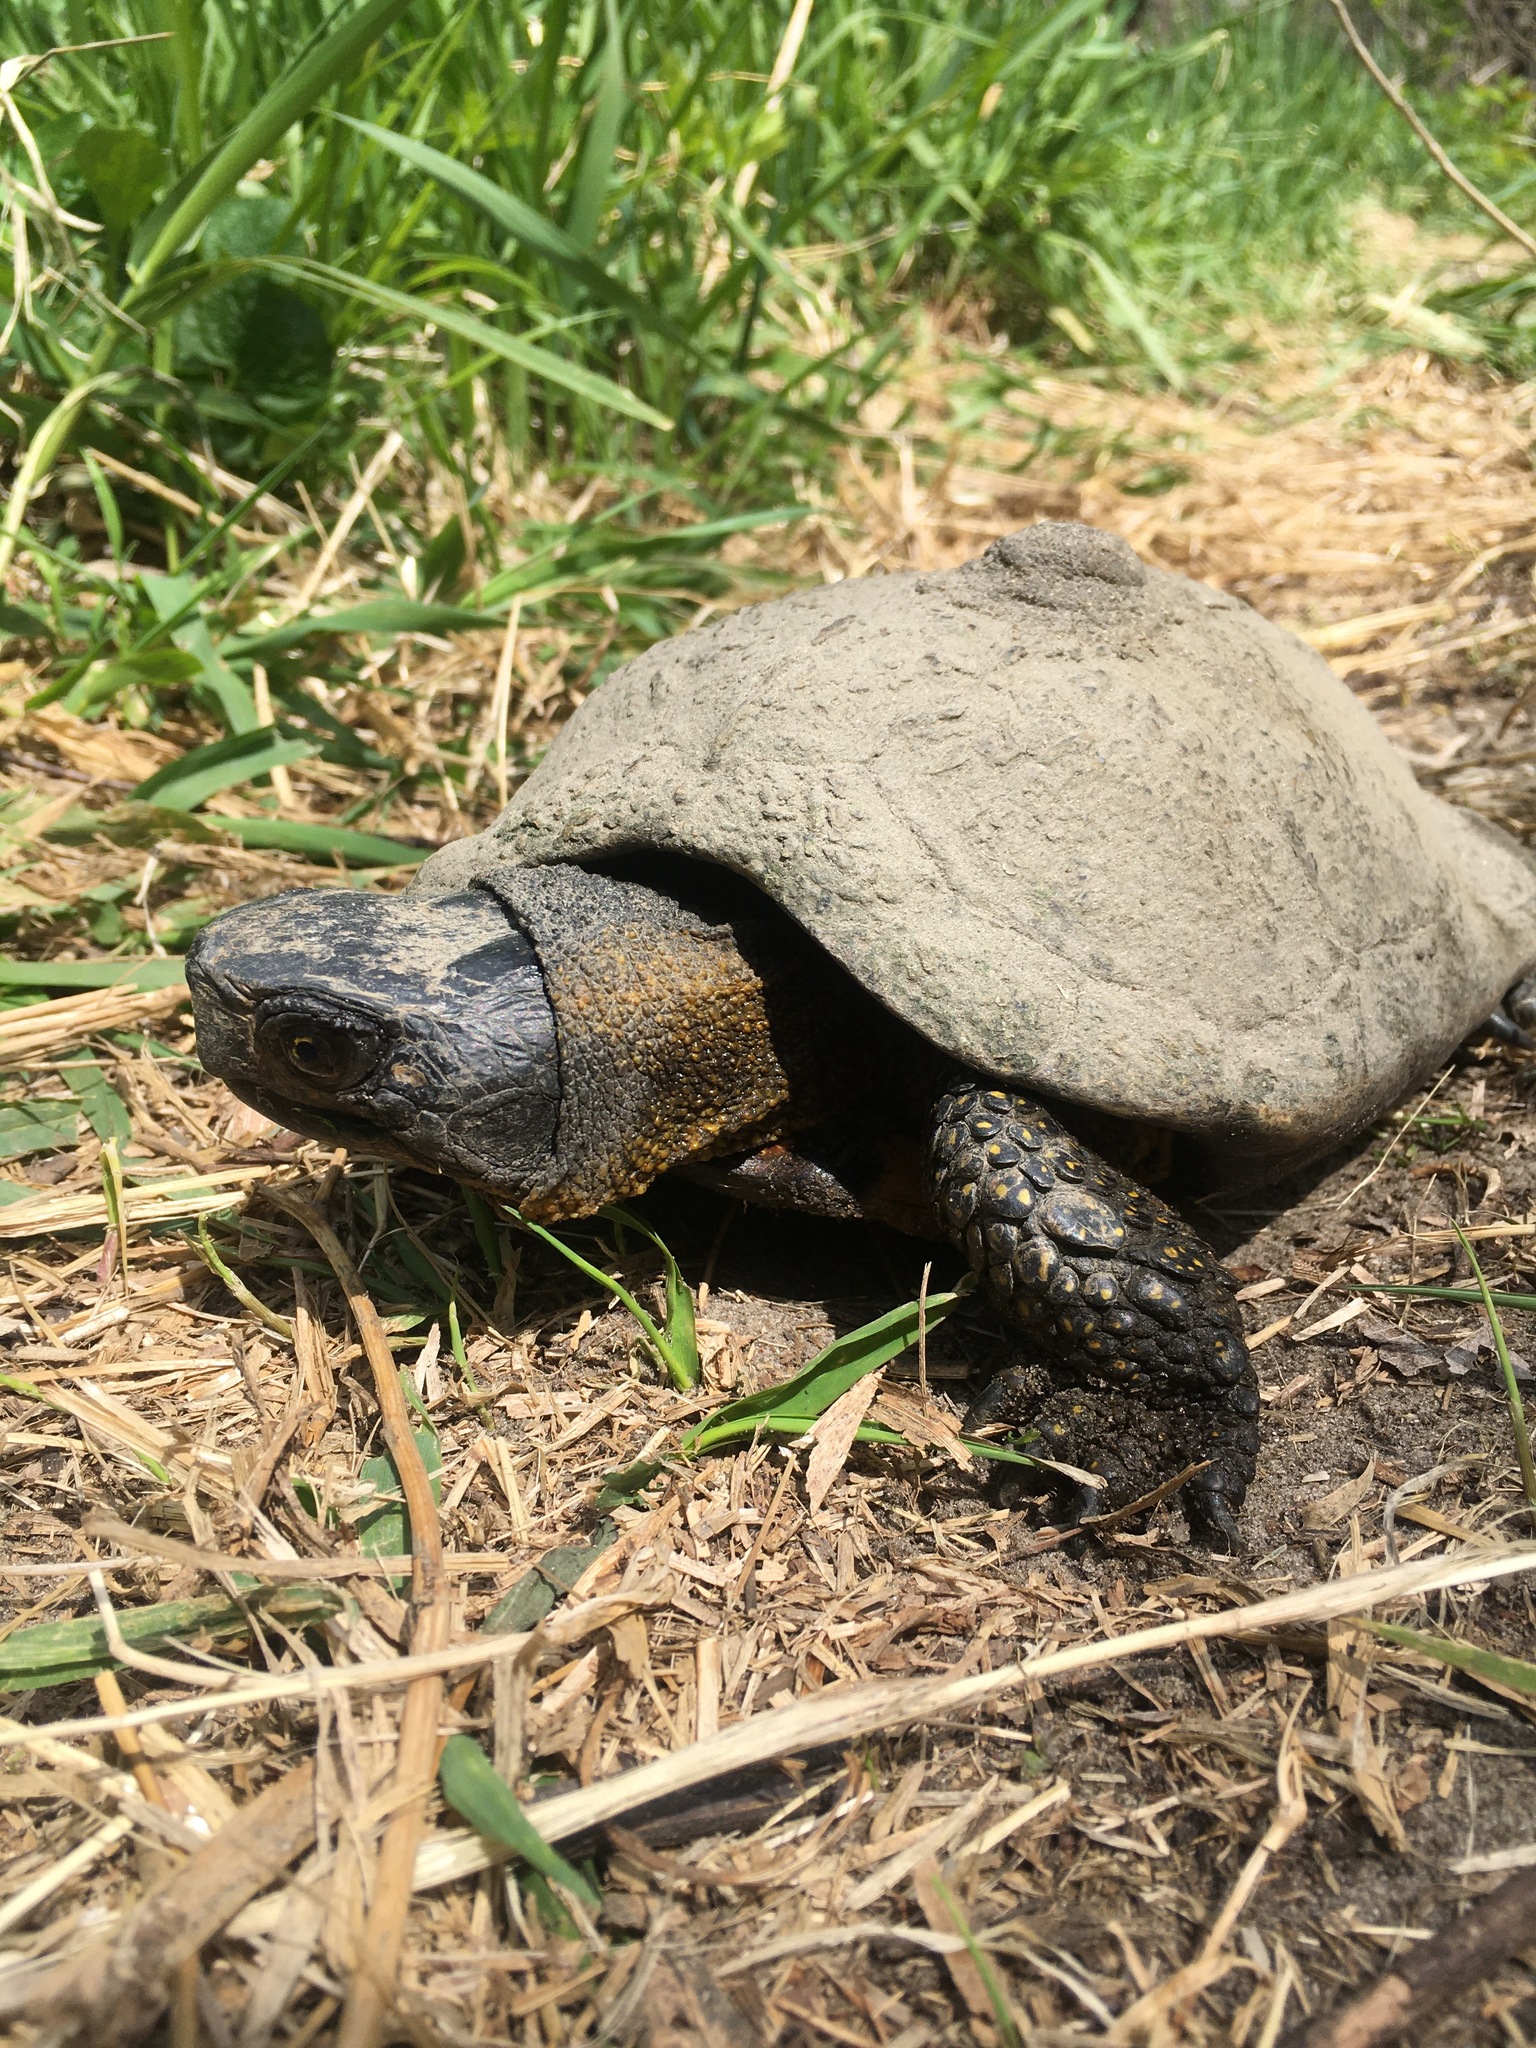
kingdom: Animalia
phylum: Chordata
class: Testudines
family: Emydidae
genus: Glyptemys
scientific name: Glyptemys insculpta
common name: Wood turtle
